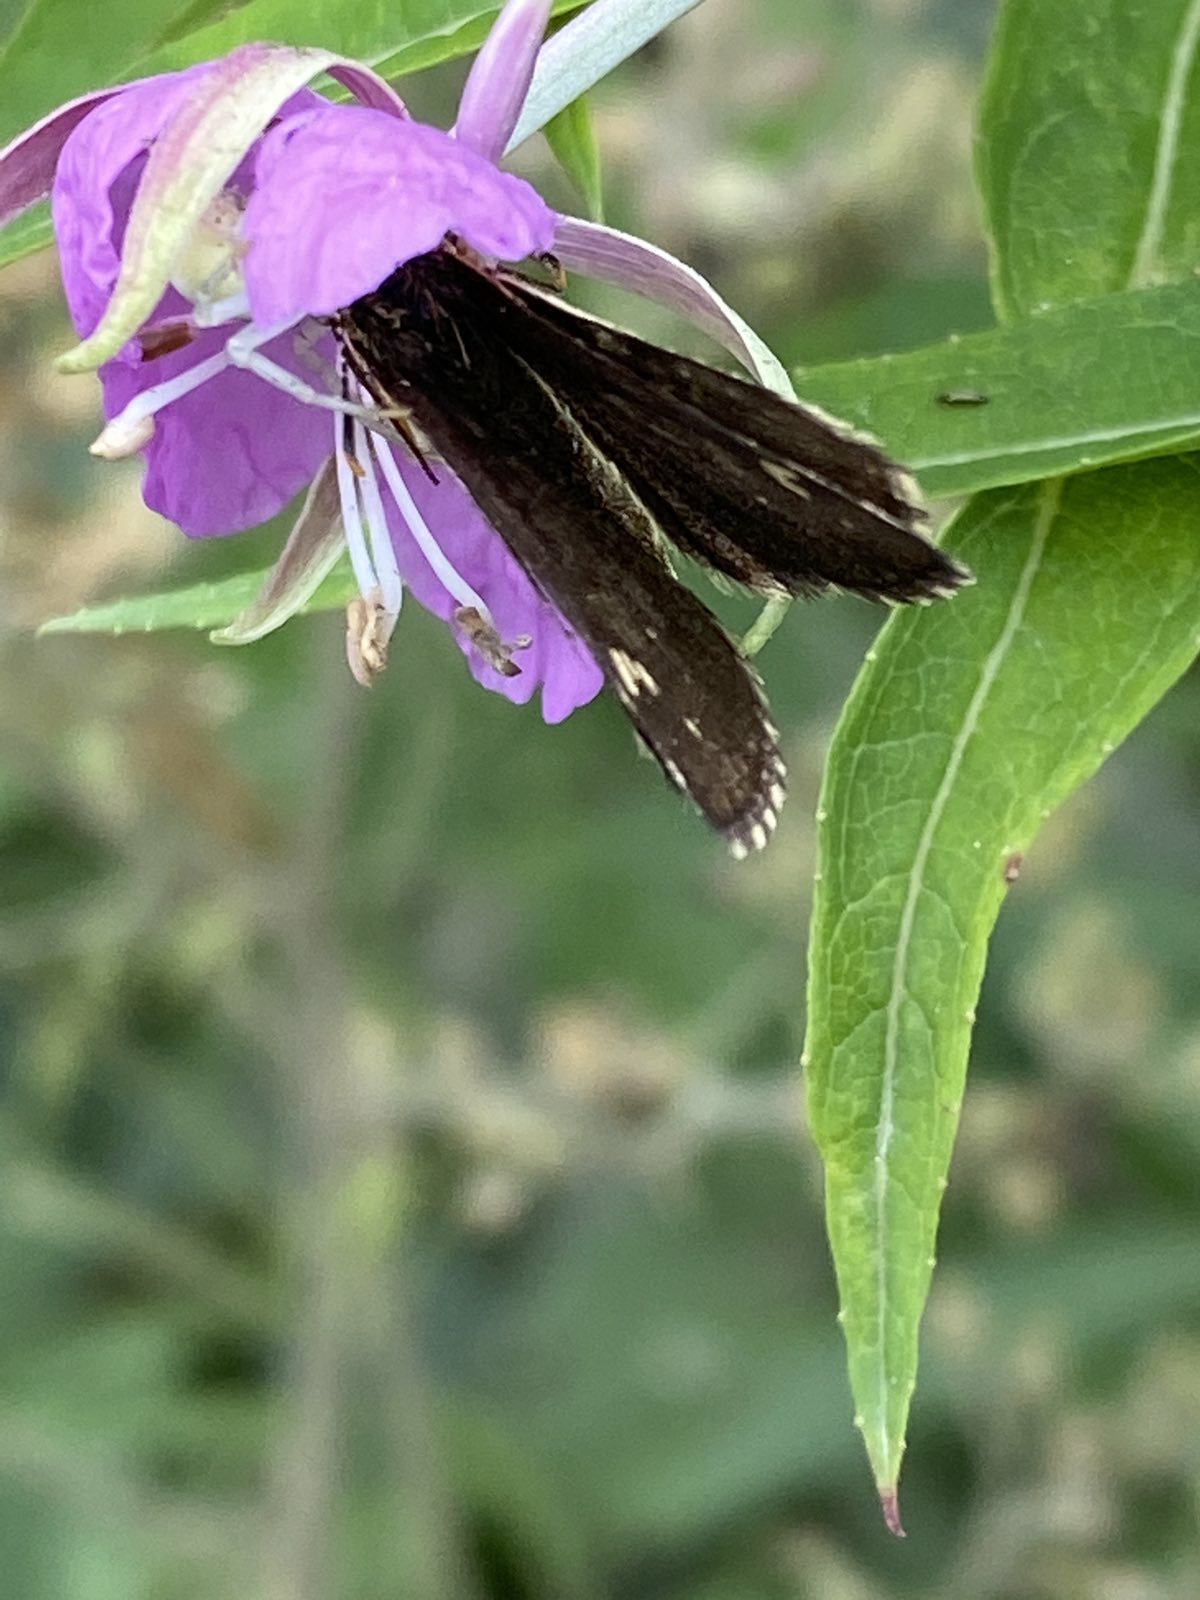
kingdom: Animalia
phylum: Arthropoda
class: Insecta
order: Lepidoptera
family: Hesperiidae
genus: Heteropterus
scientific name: Heteropterus morpheus
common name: Large chequered skipper
